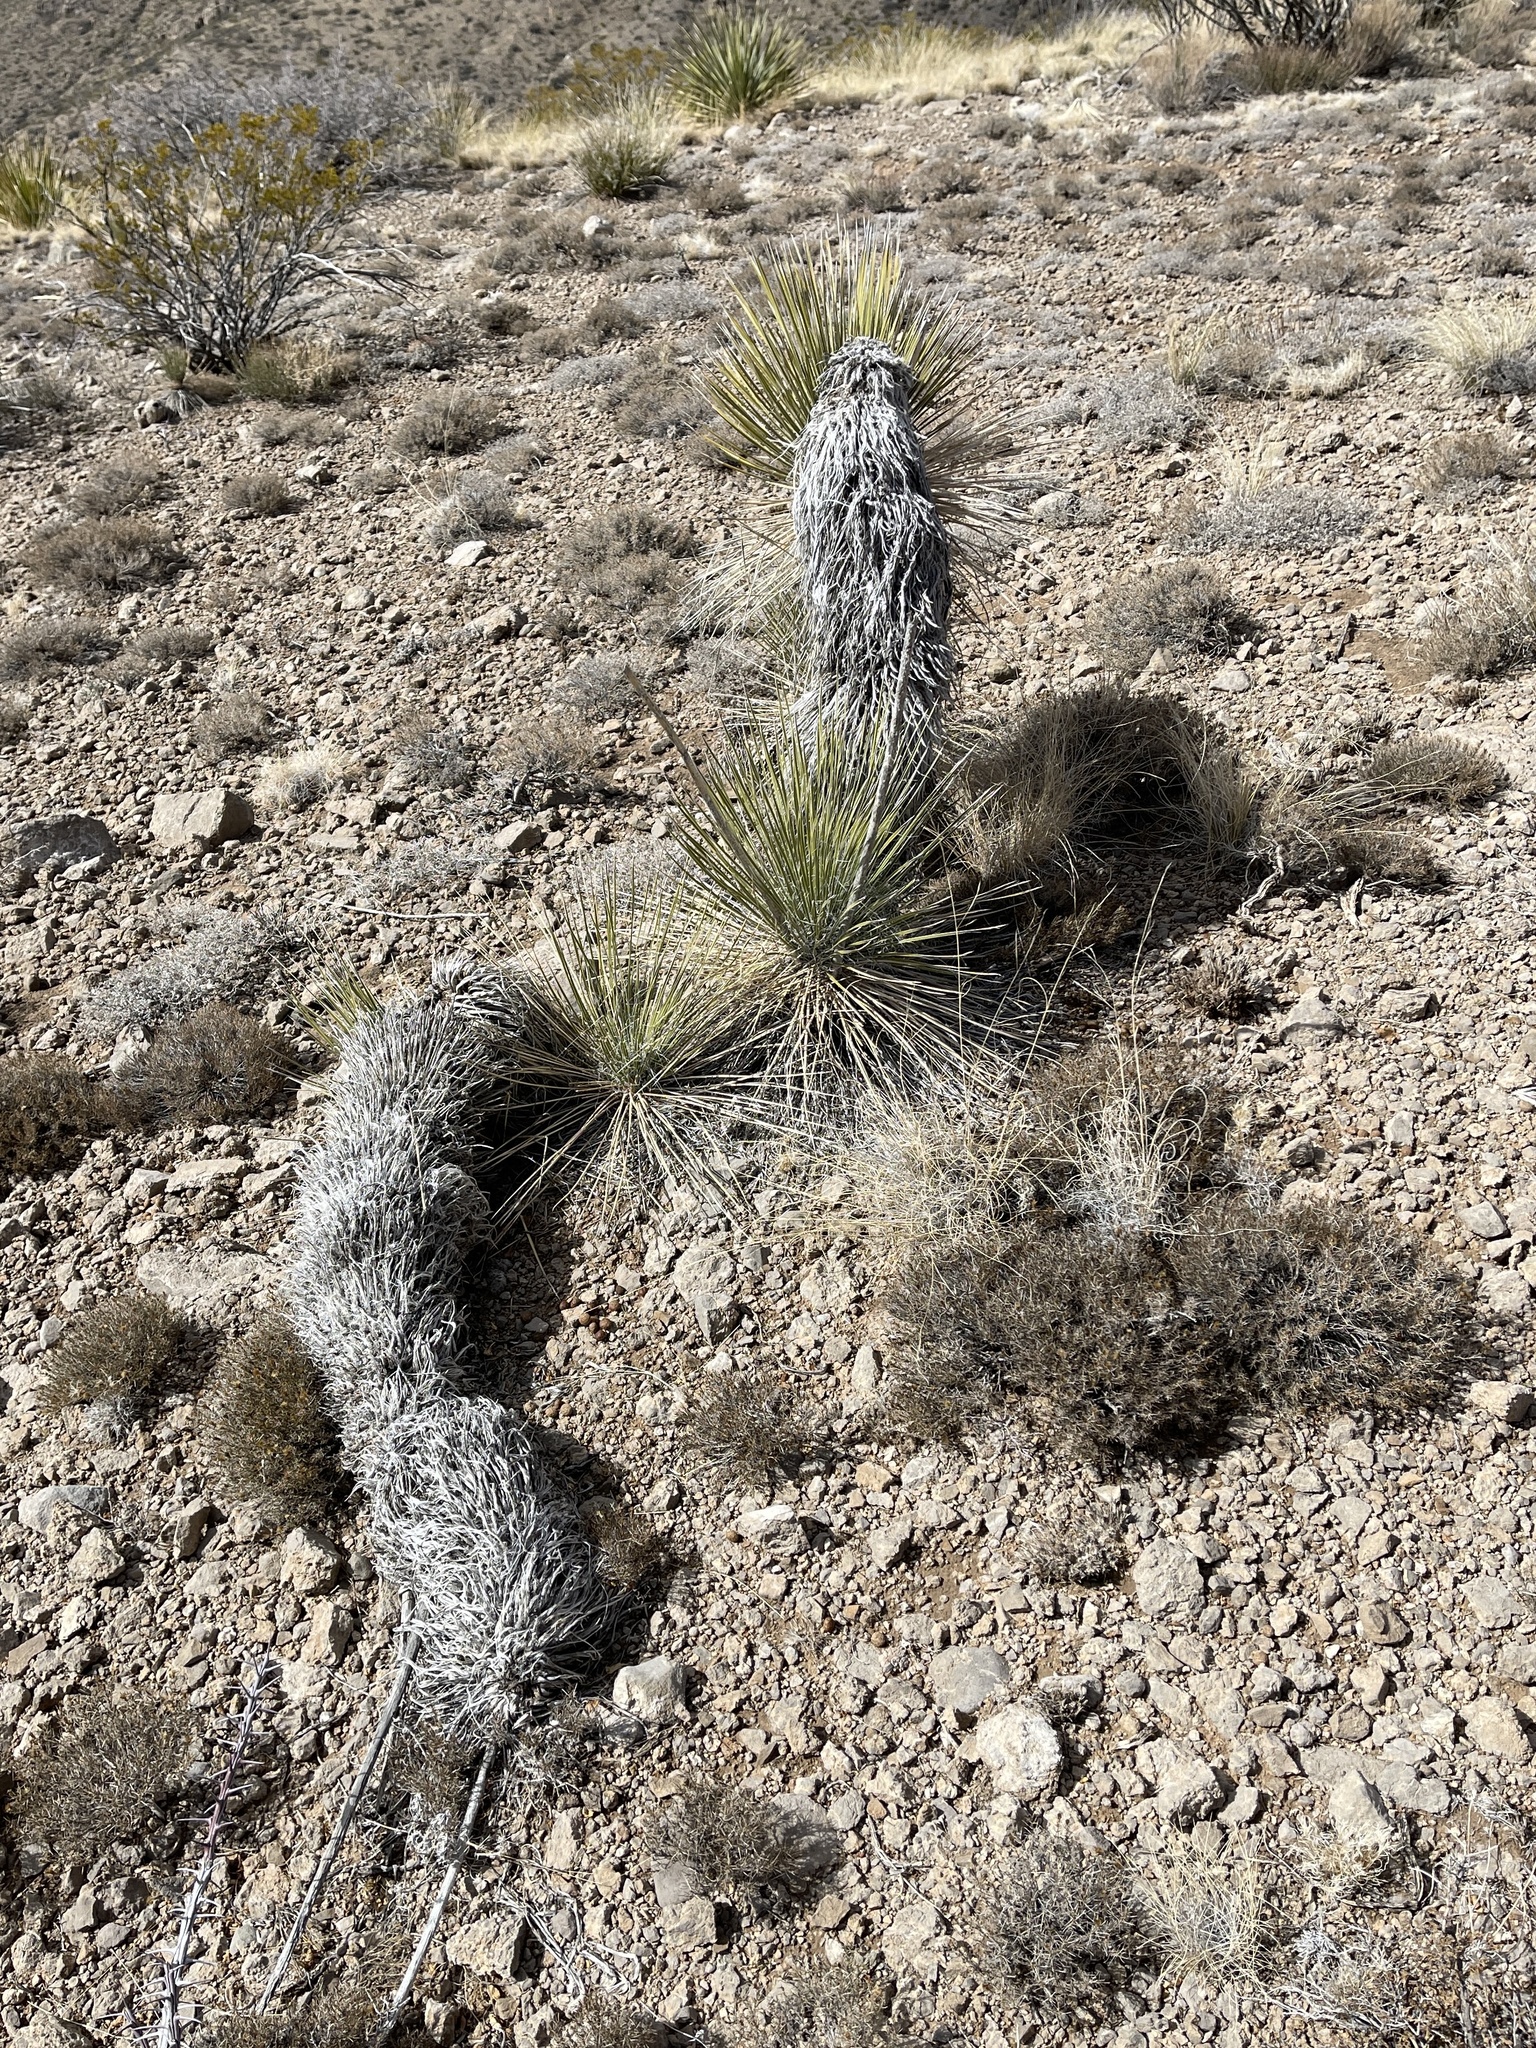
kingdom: Plantae
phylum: Tracheophyta
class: Liliopsida
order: Asparagales
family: Asparagaceae
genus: Yucca
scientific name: Yucca elata
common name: Palmella
